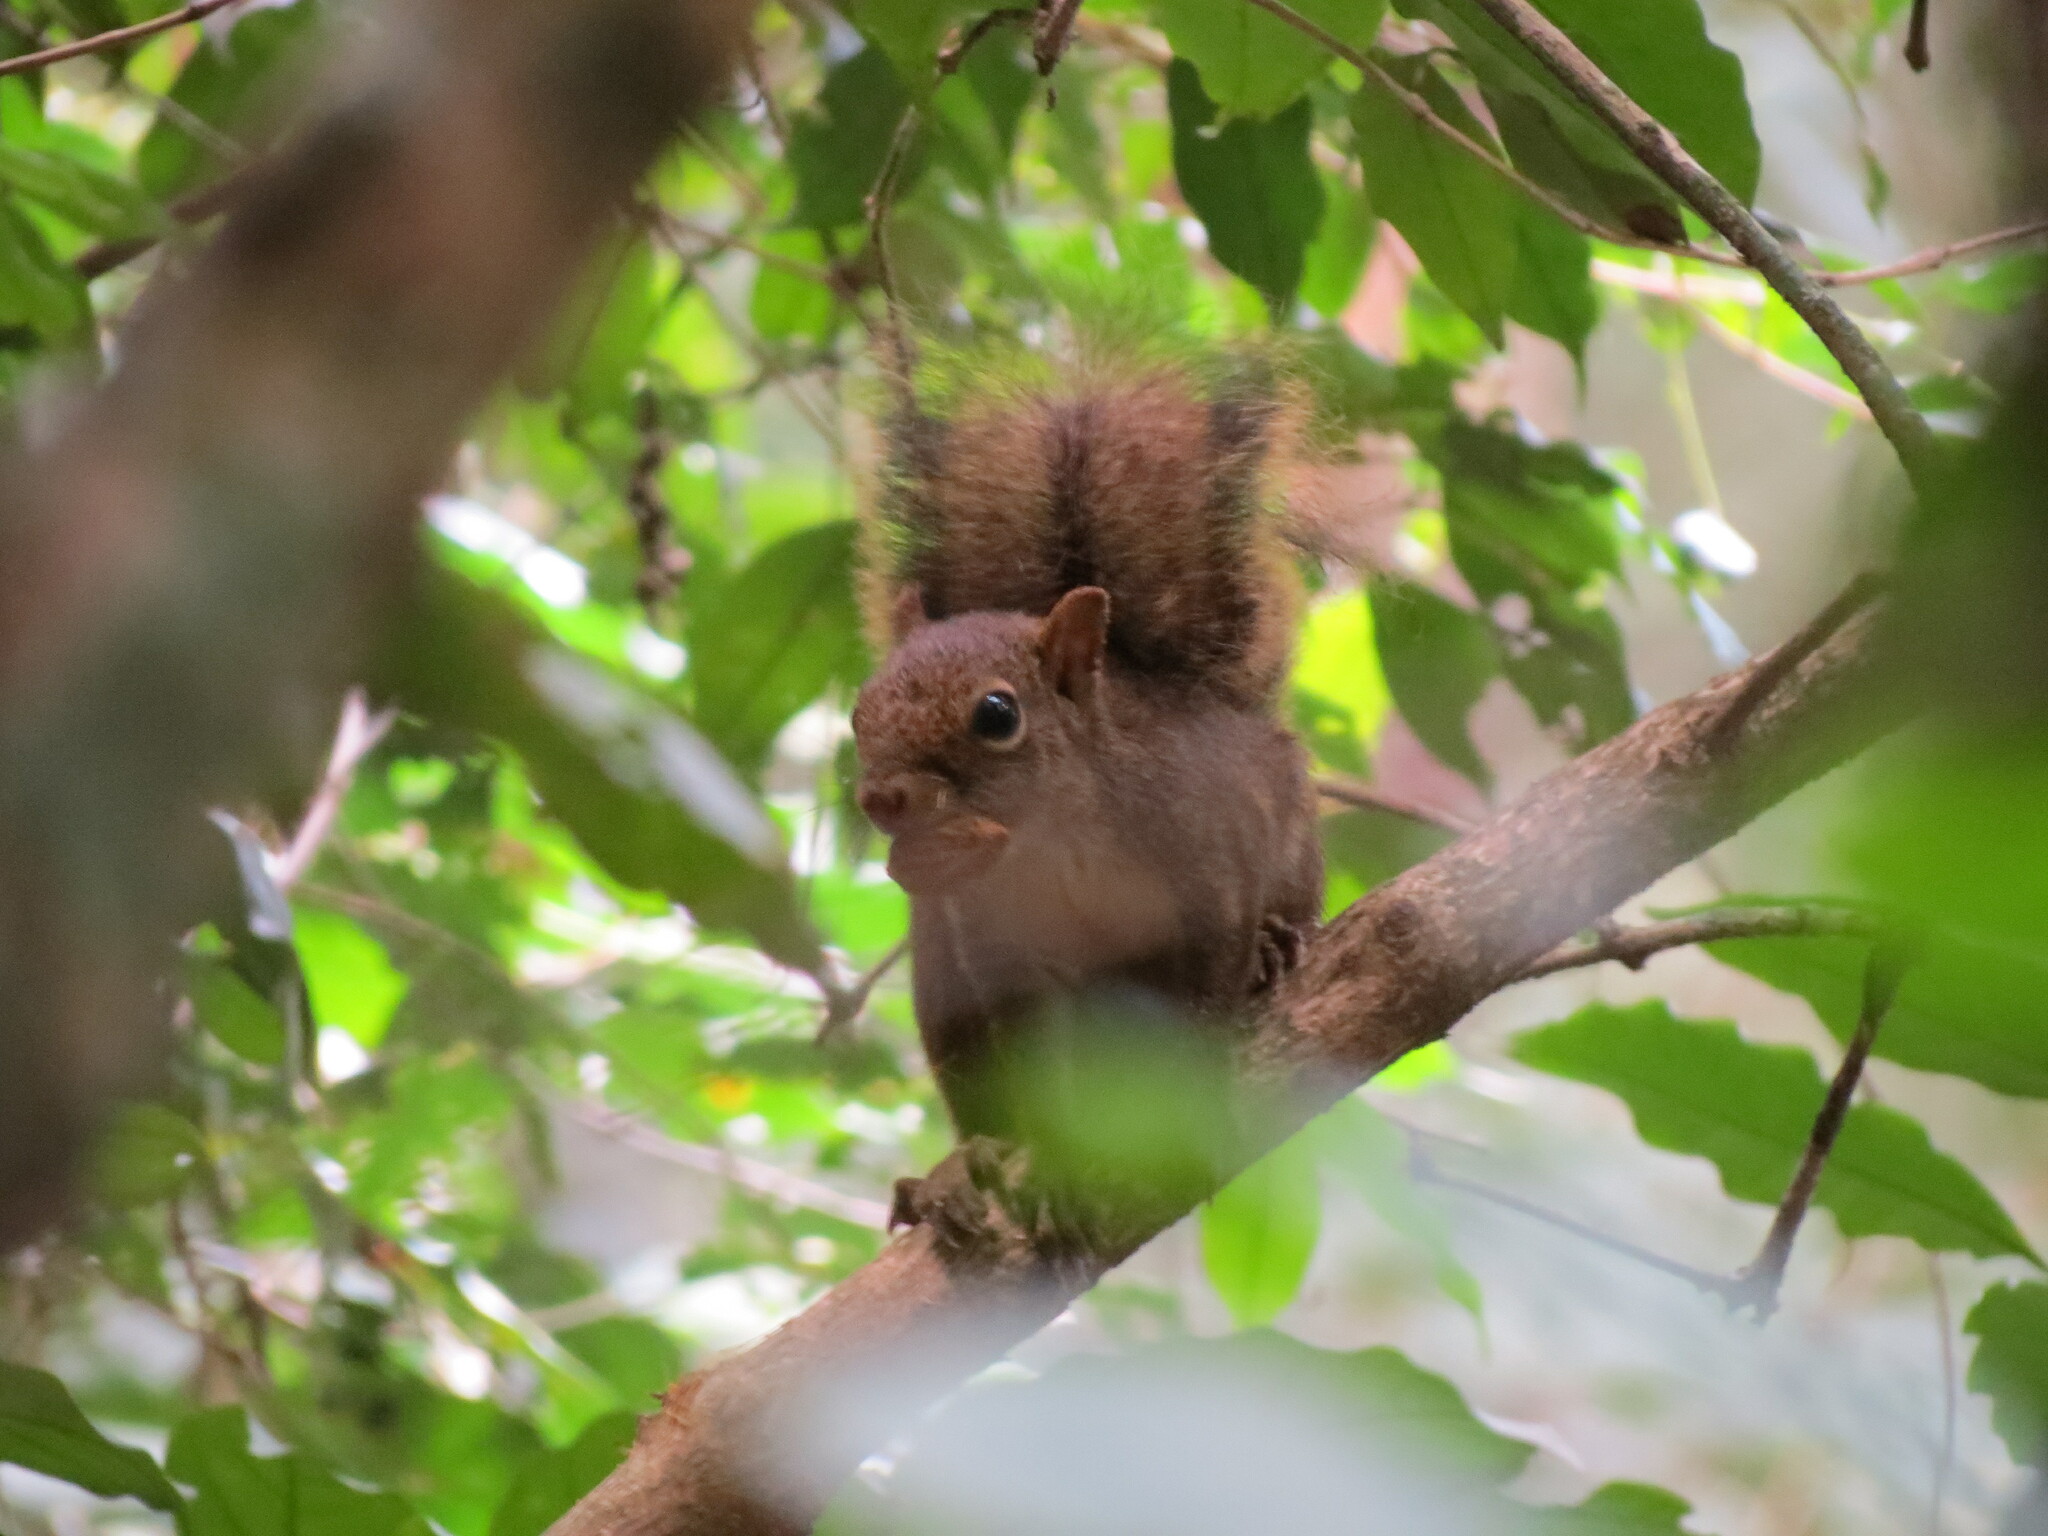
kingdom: Animalia
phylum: Chordata
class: Mammalia
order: Rodentia
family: Sciuridae
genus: Sciurus
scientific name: Sciurus aestuans
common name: Guianan squirrel
